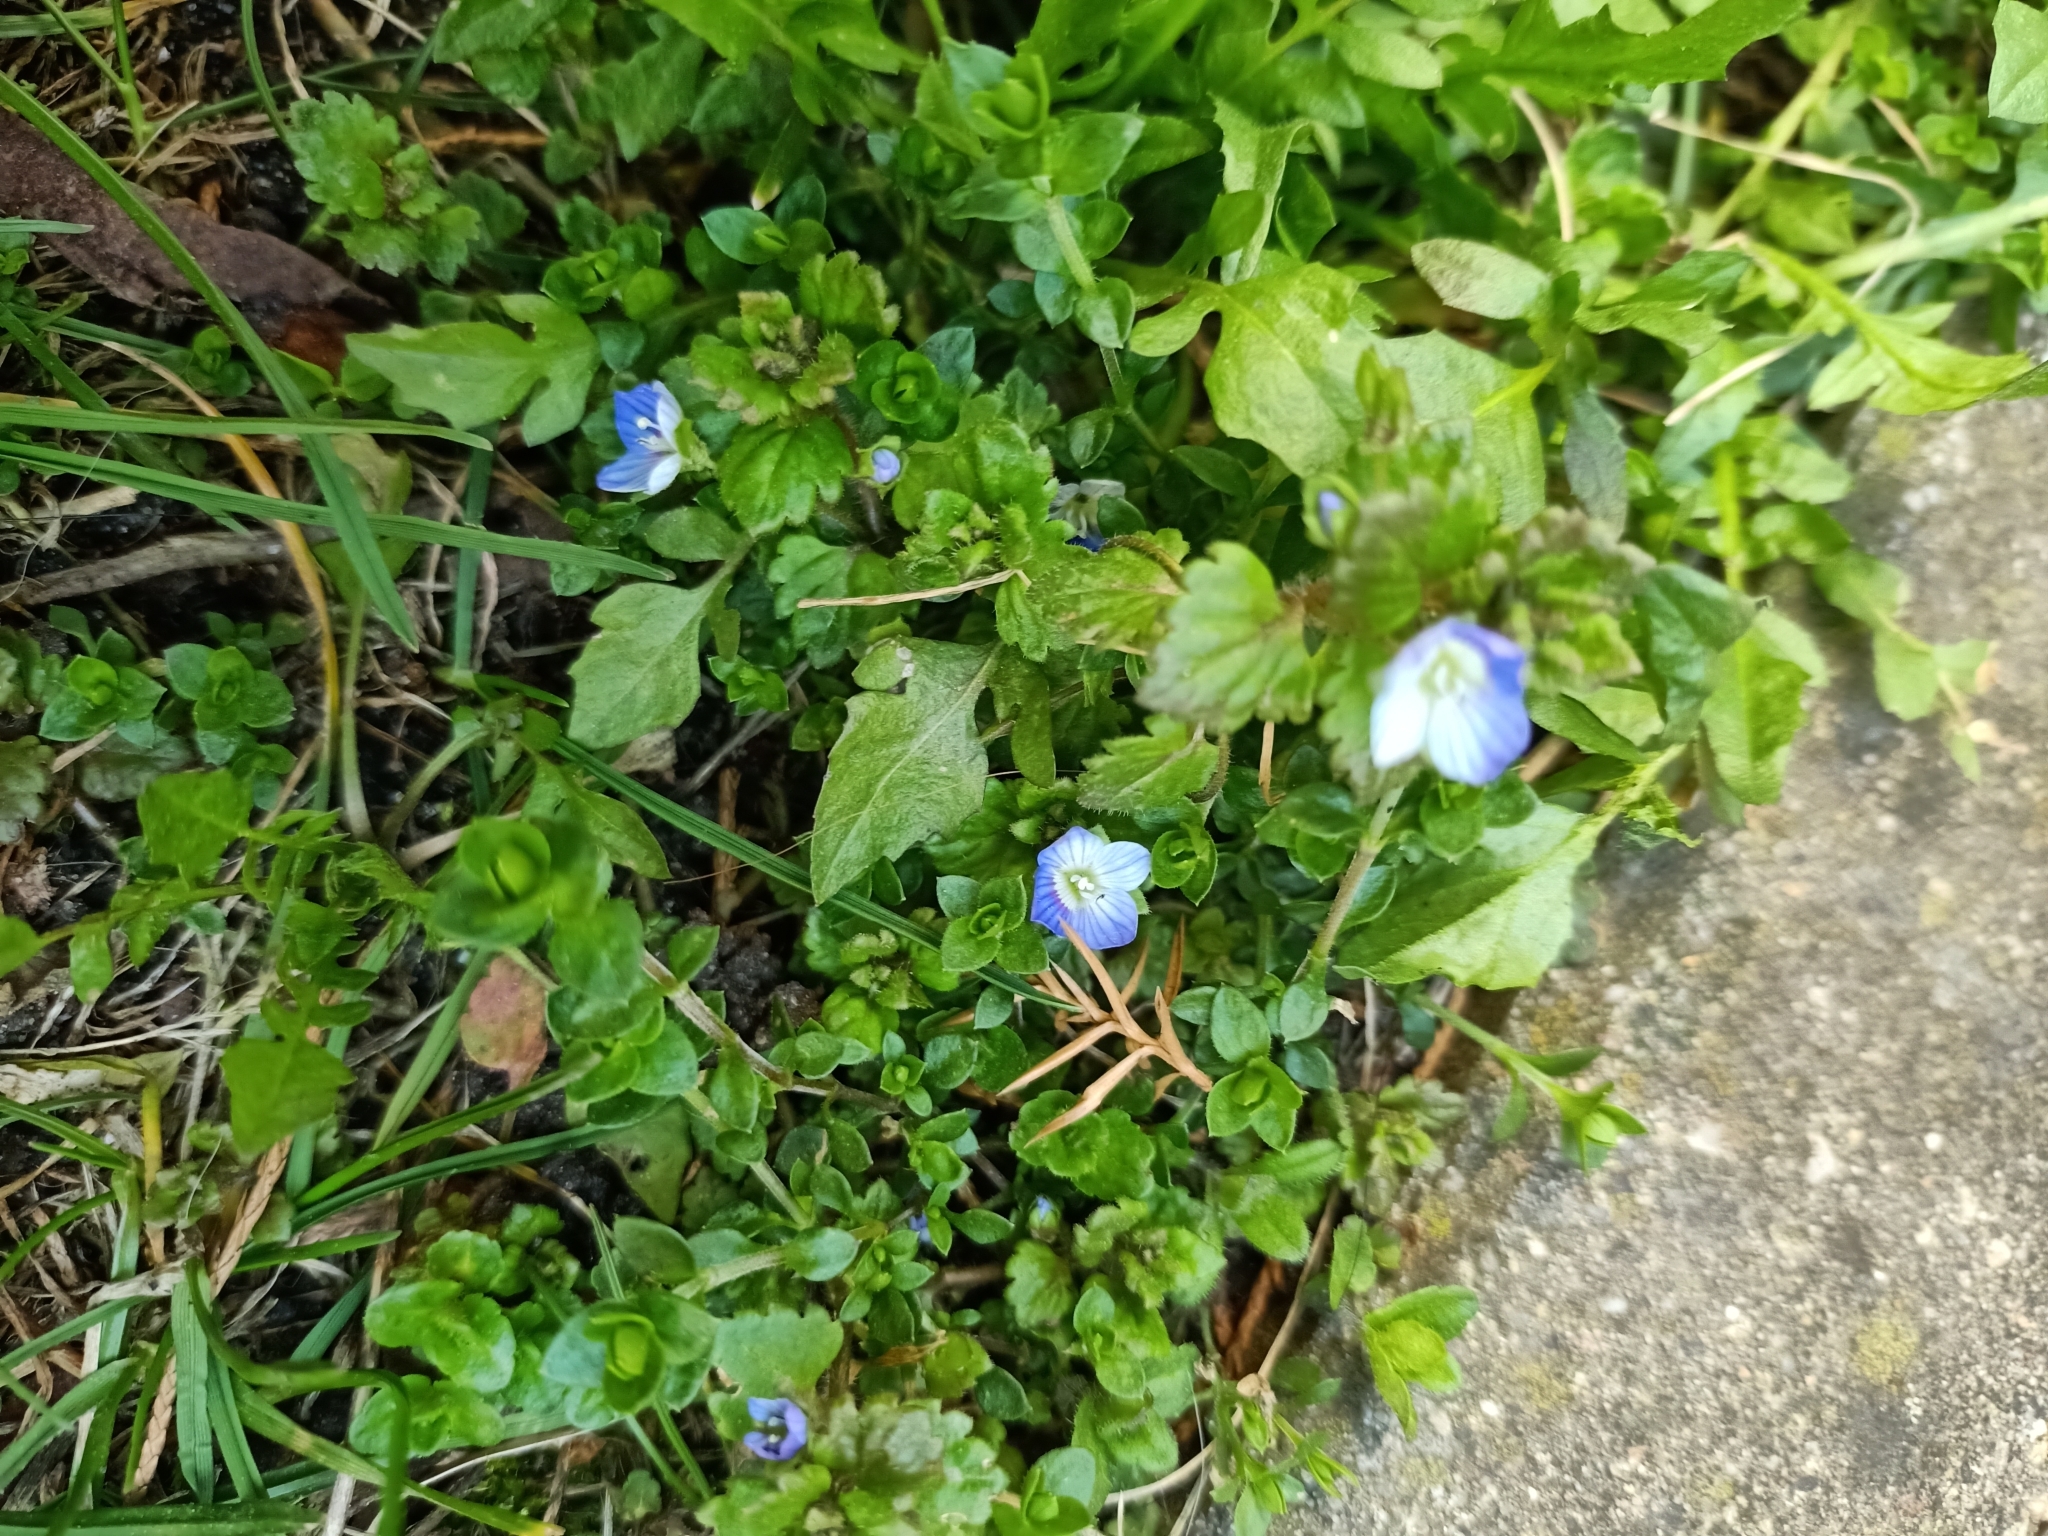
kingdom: Plantae
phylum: Tracheophyta
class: Magnoliopsida
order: Lamiales
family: Plantaginaceae
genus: Veronica
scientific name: Veronica persica
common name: Common field-speedwell
